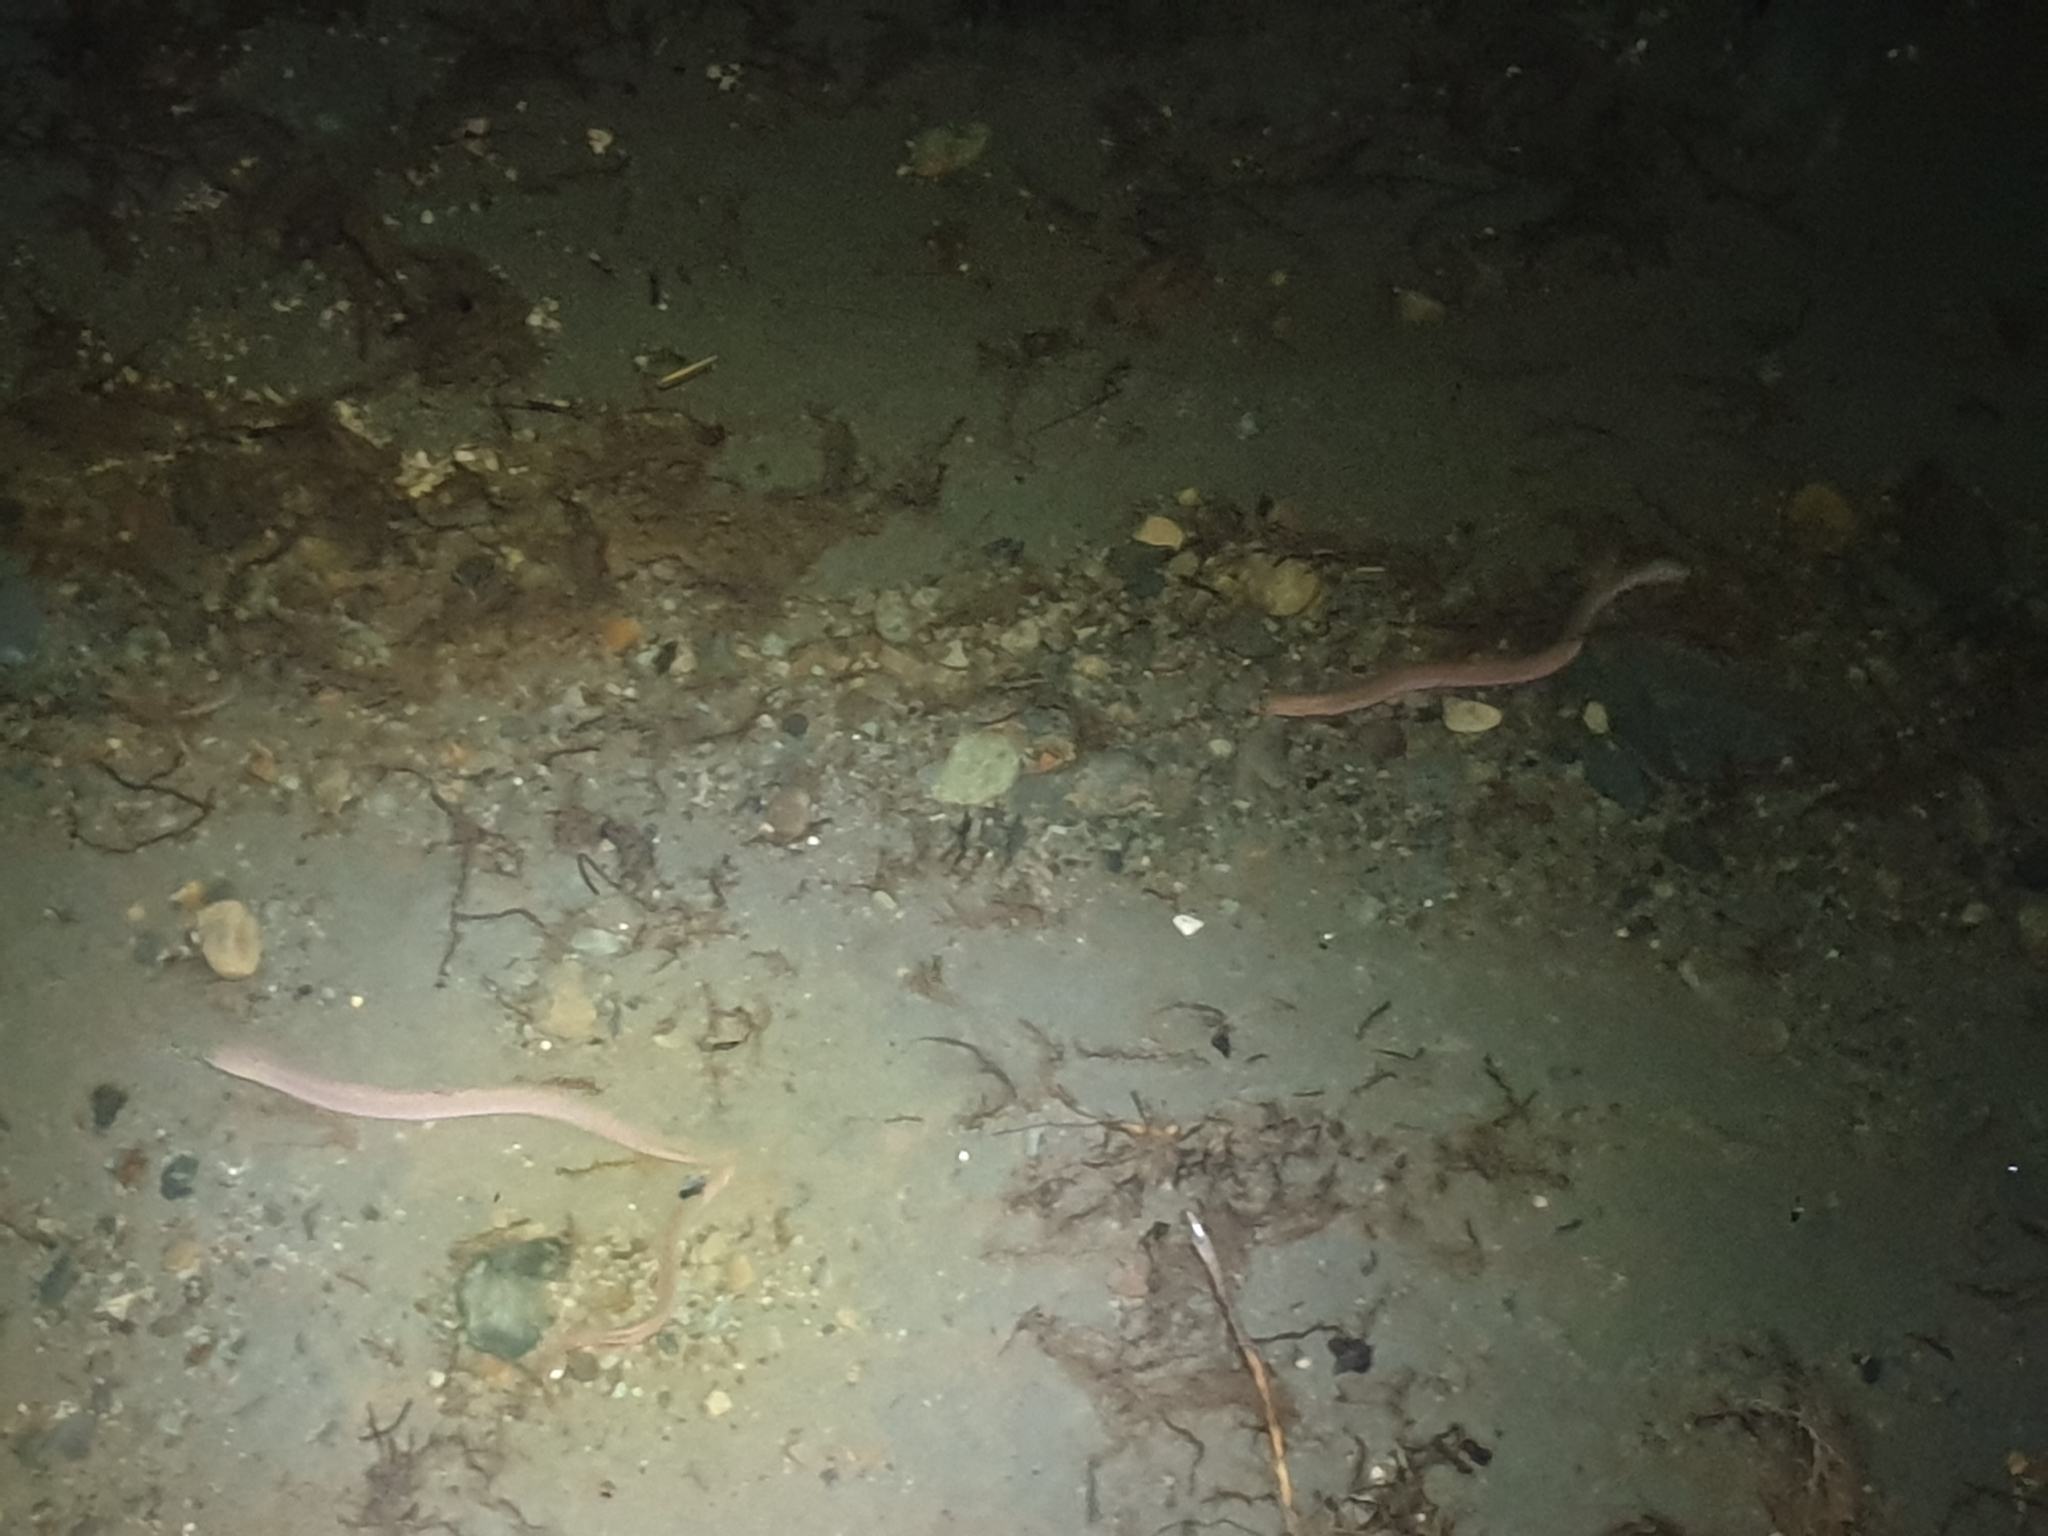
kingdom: Animalia
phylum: Chordata
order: Anguilliformes
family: Anguillidae
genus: Anguilla
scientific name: Anguilla australis
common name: Shortfin eel
